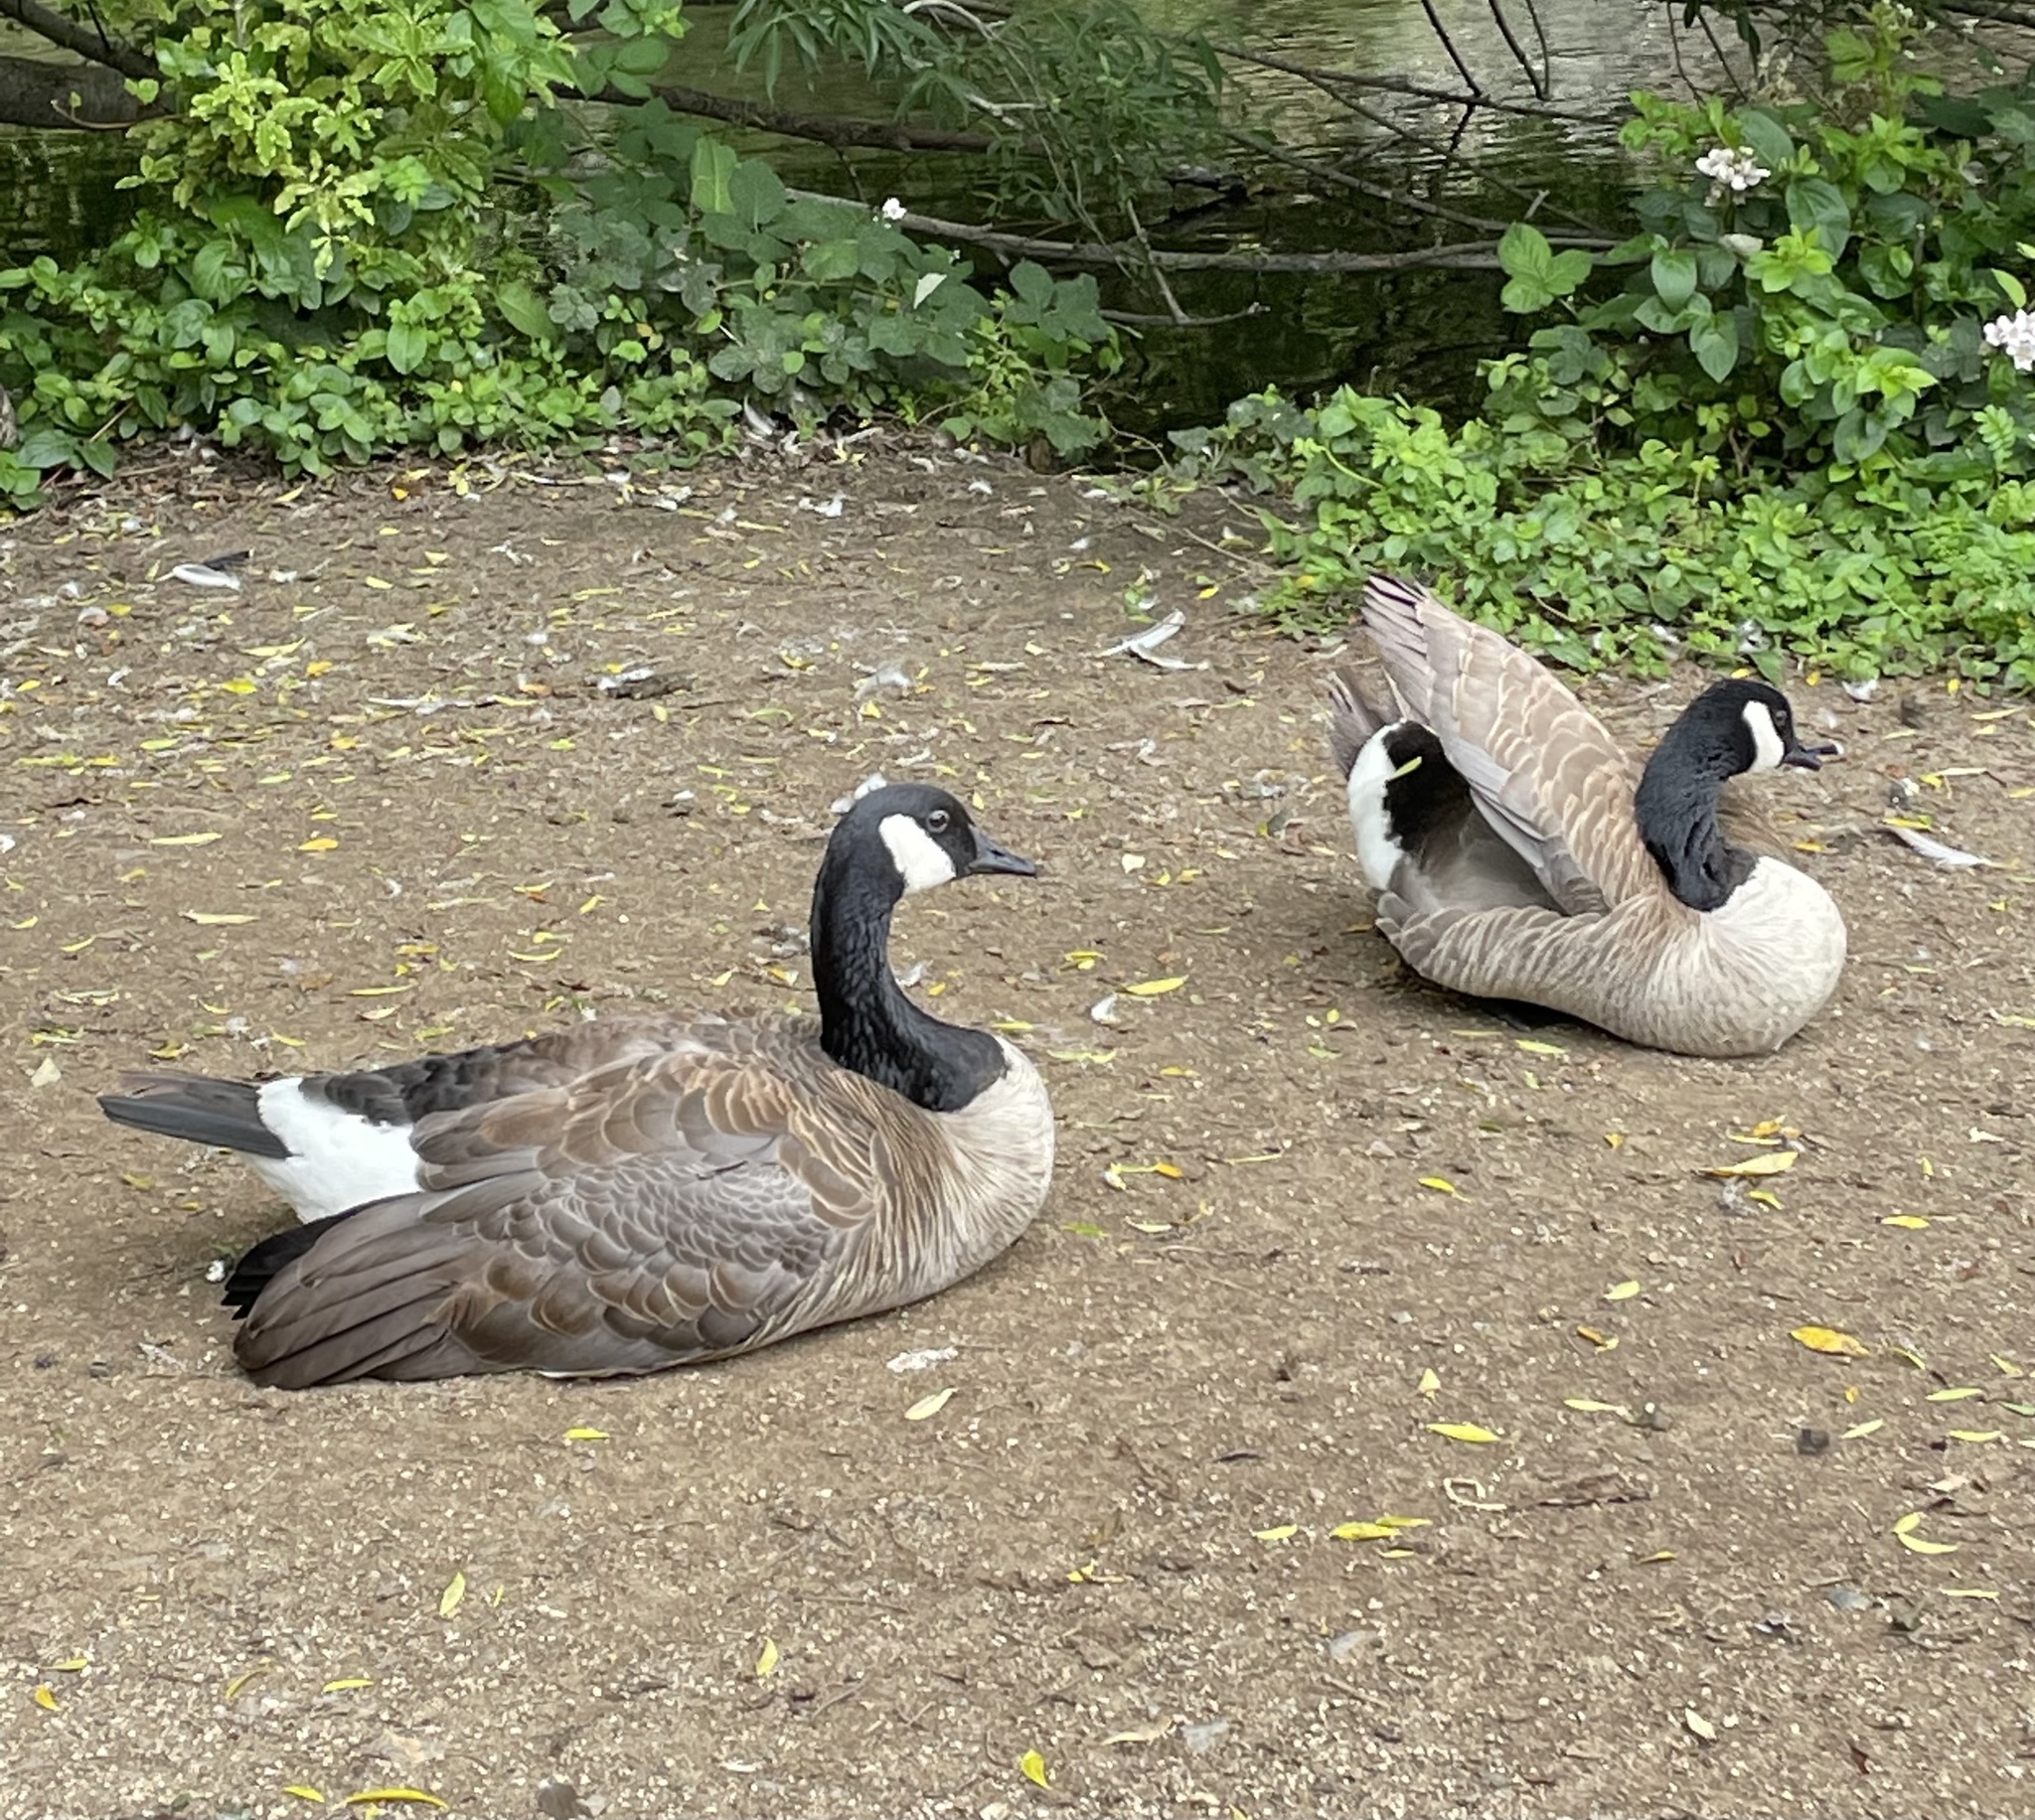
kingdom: Animalia
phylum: Chordata
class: Aves
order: Anseriformes
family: Anatidae
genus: Branta
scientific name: Branta canadensis
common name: Canada goose
